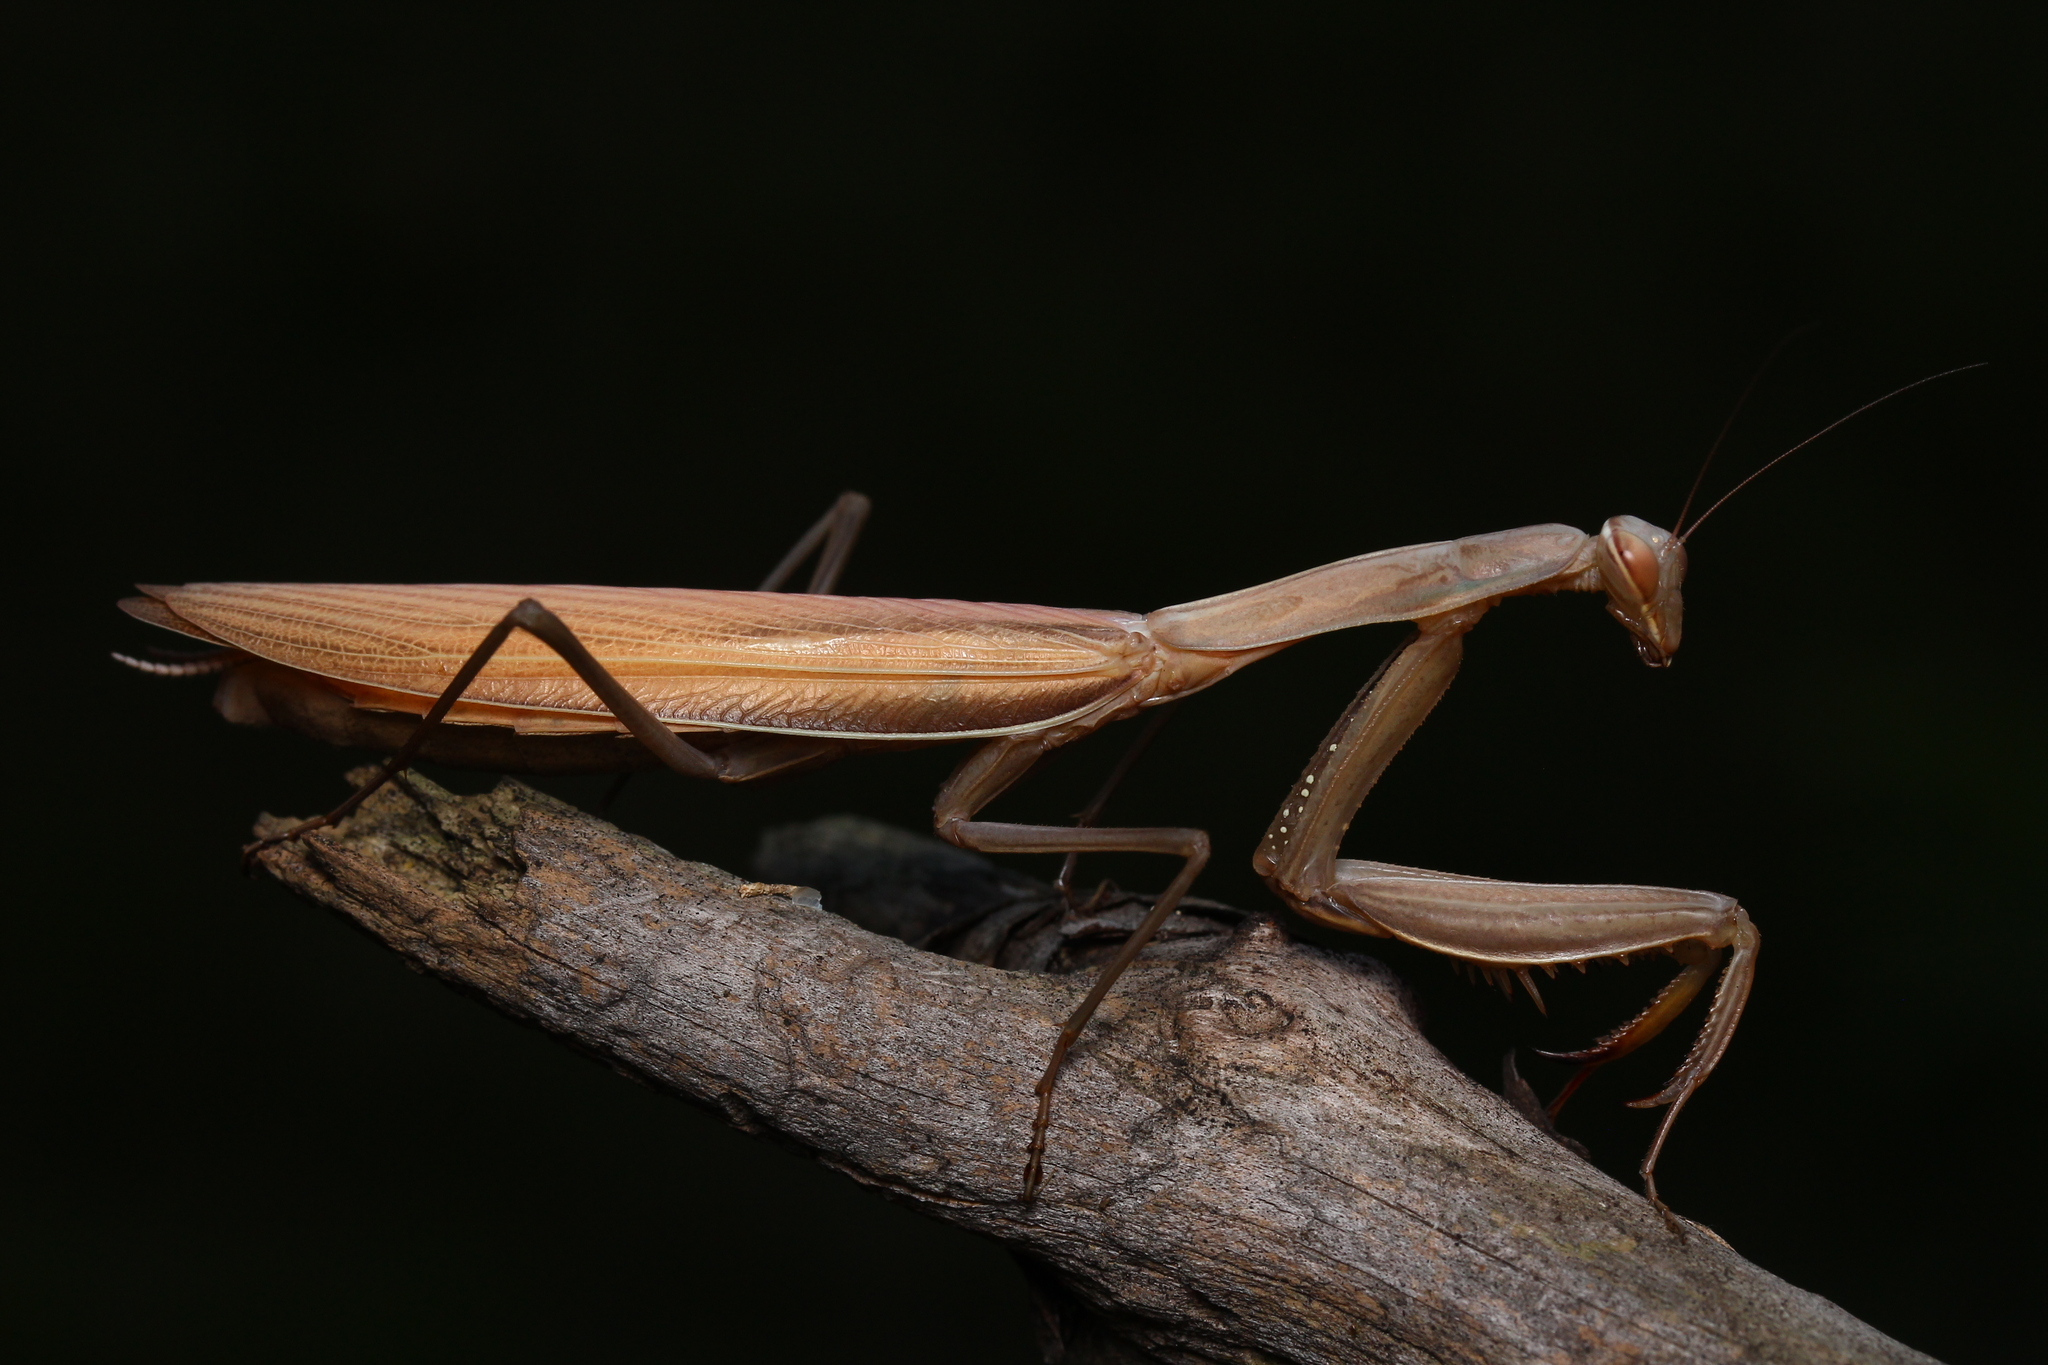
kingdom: Animalia
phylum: Arthropoda
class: Insecta
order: Mantodea
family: Mantidae
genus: Mantis
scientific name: Mantis religiosa
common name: Praying mantis
